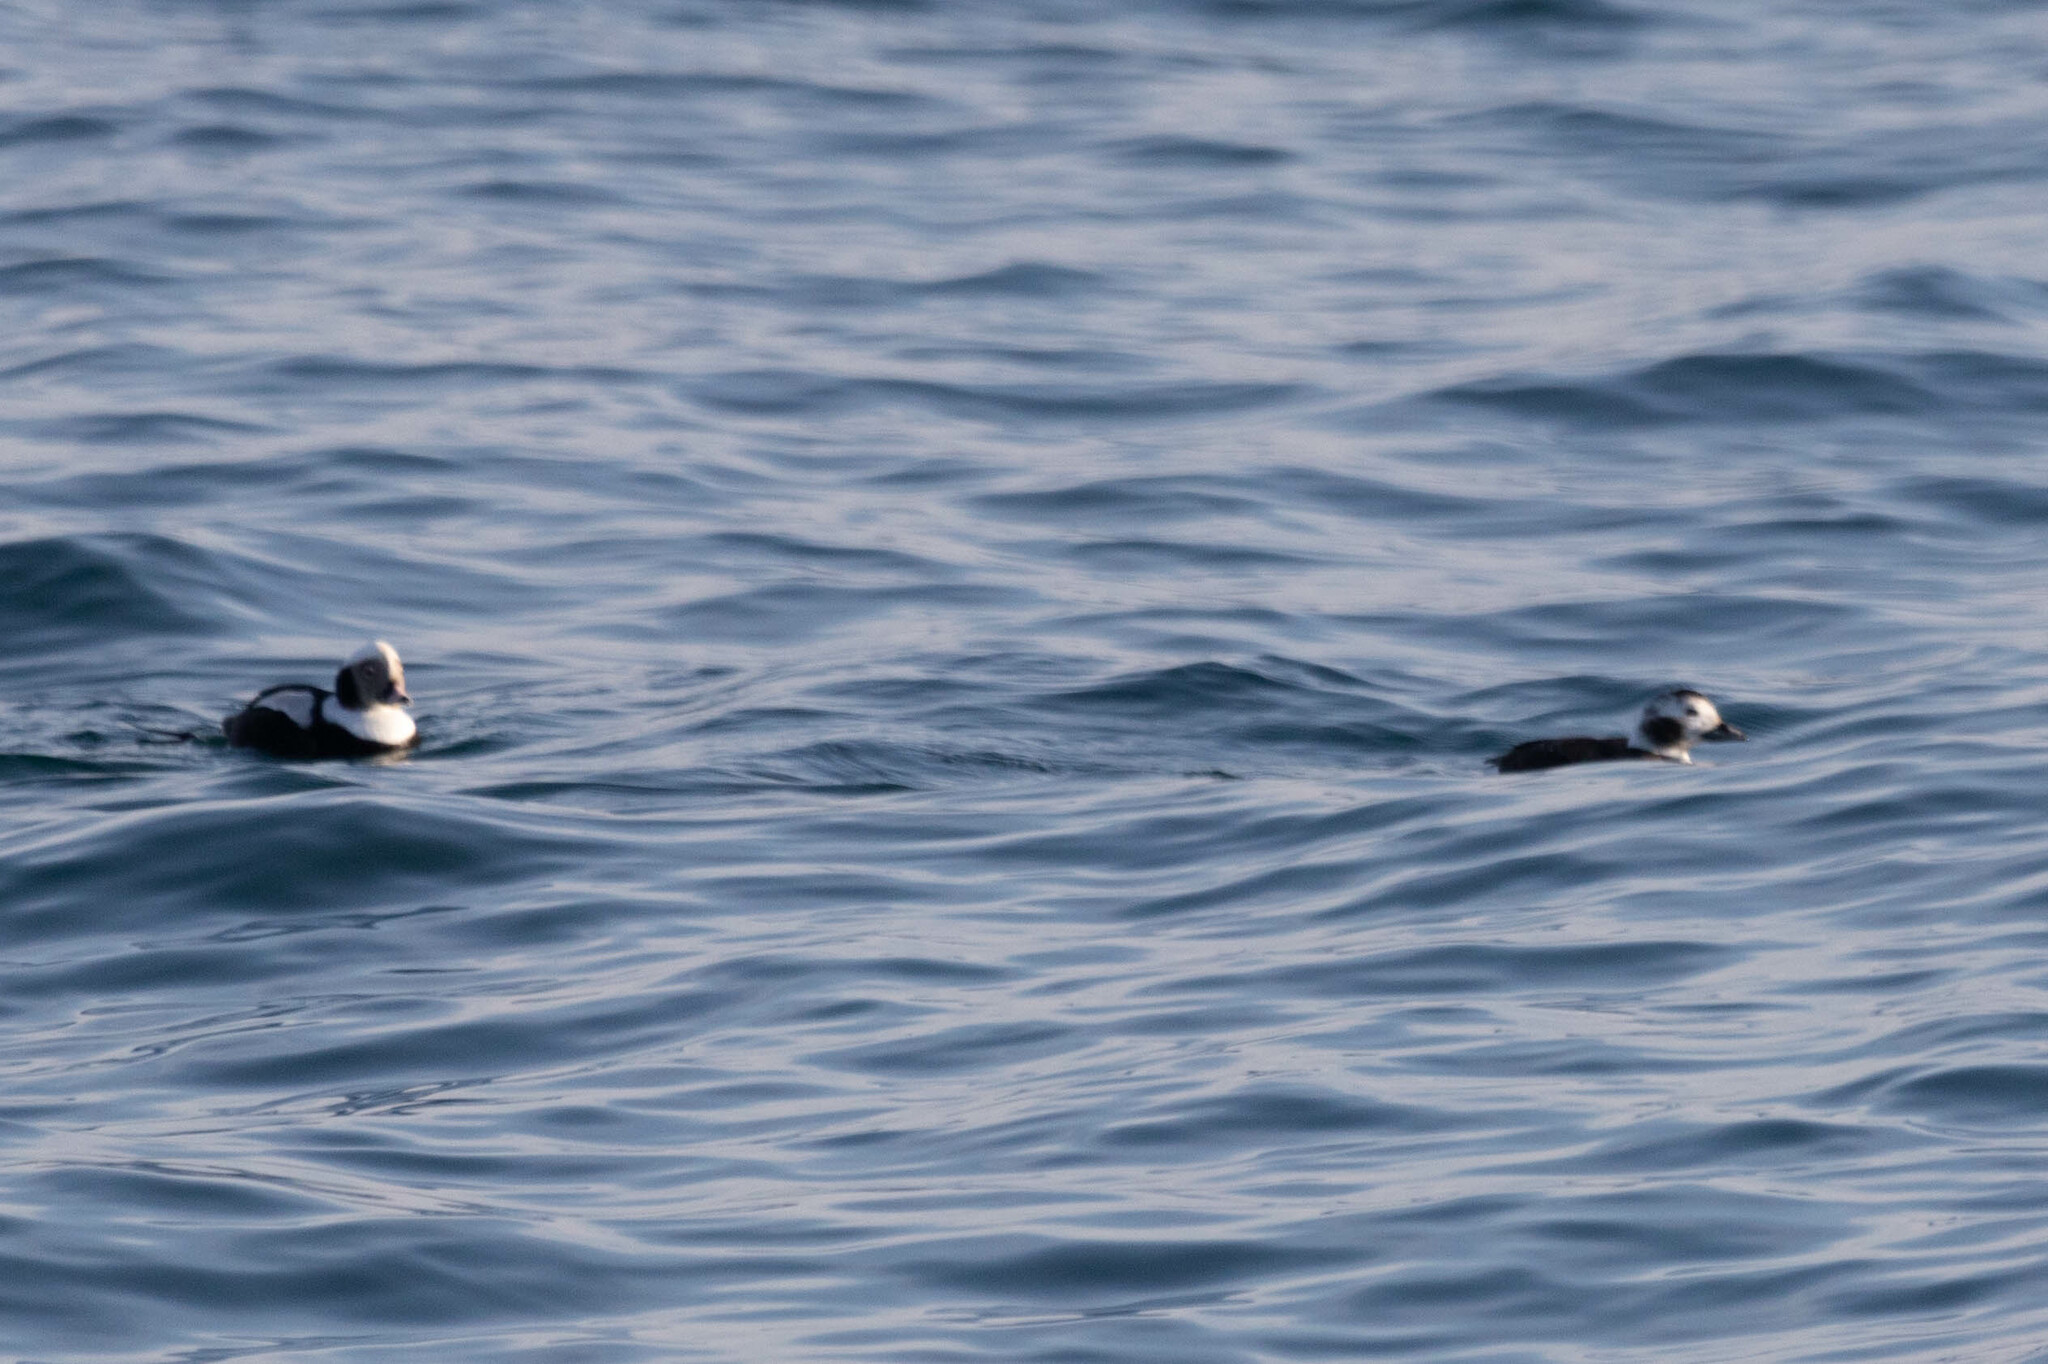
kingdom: Animalia
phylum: Chordata
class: Aves
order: Anseriformes
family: Anatidae
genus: Clangula
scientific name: Clangula hyemalis
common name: Long-tailed duck
